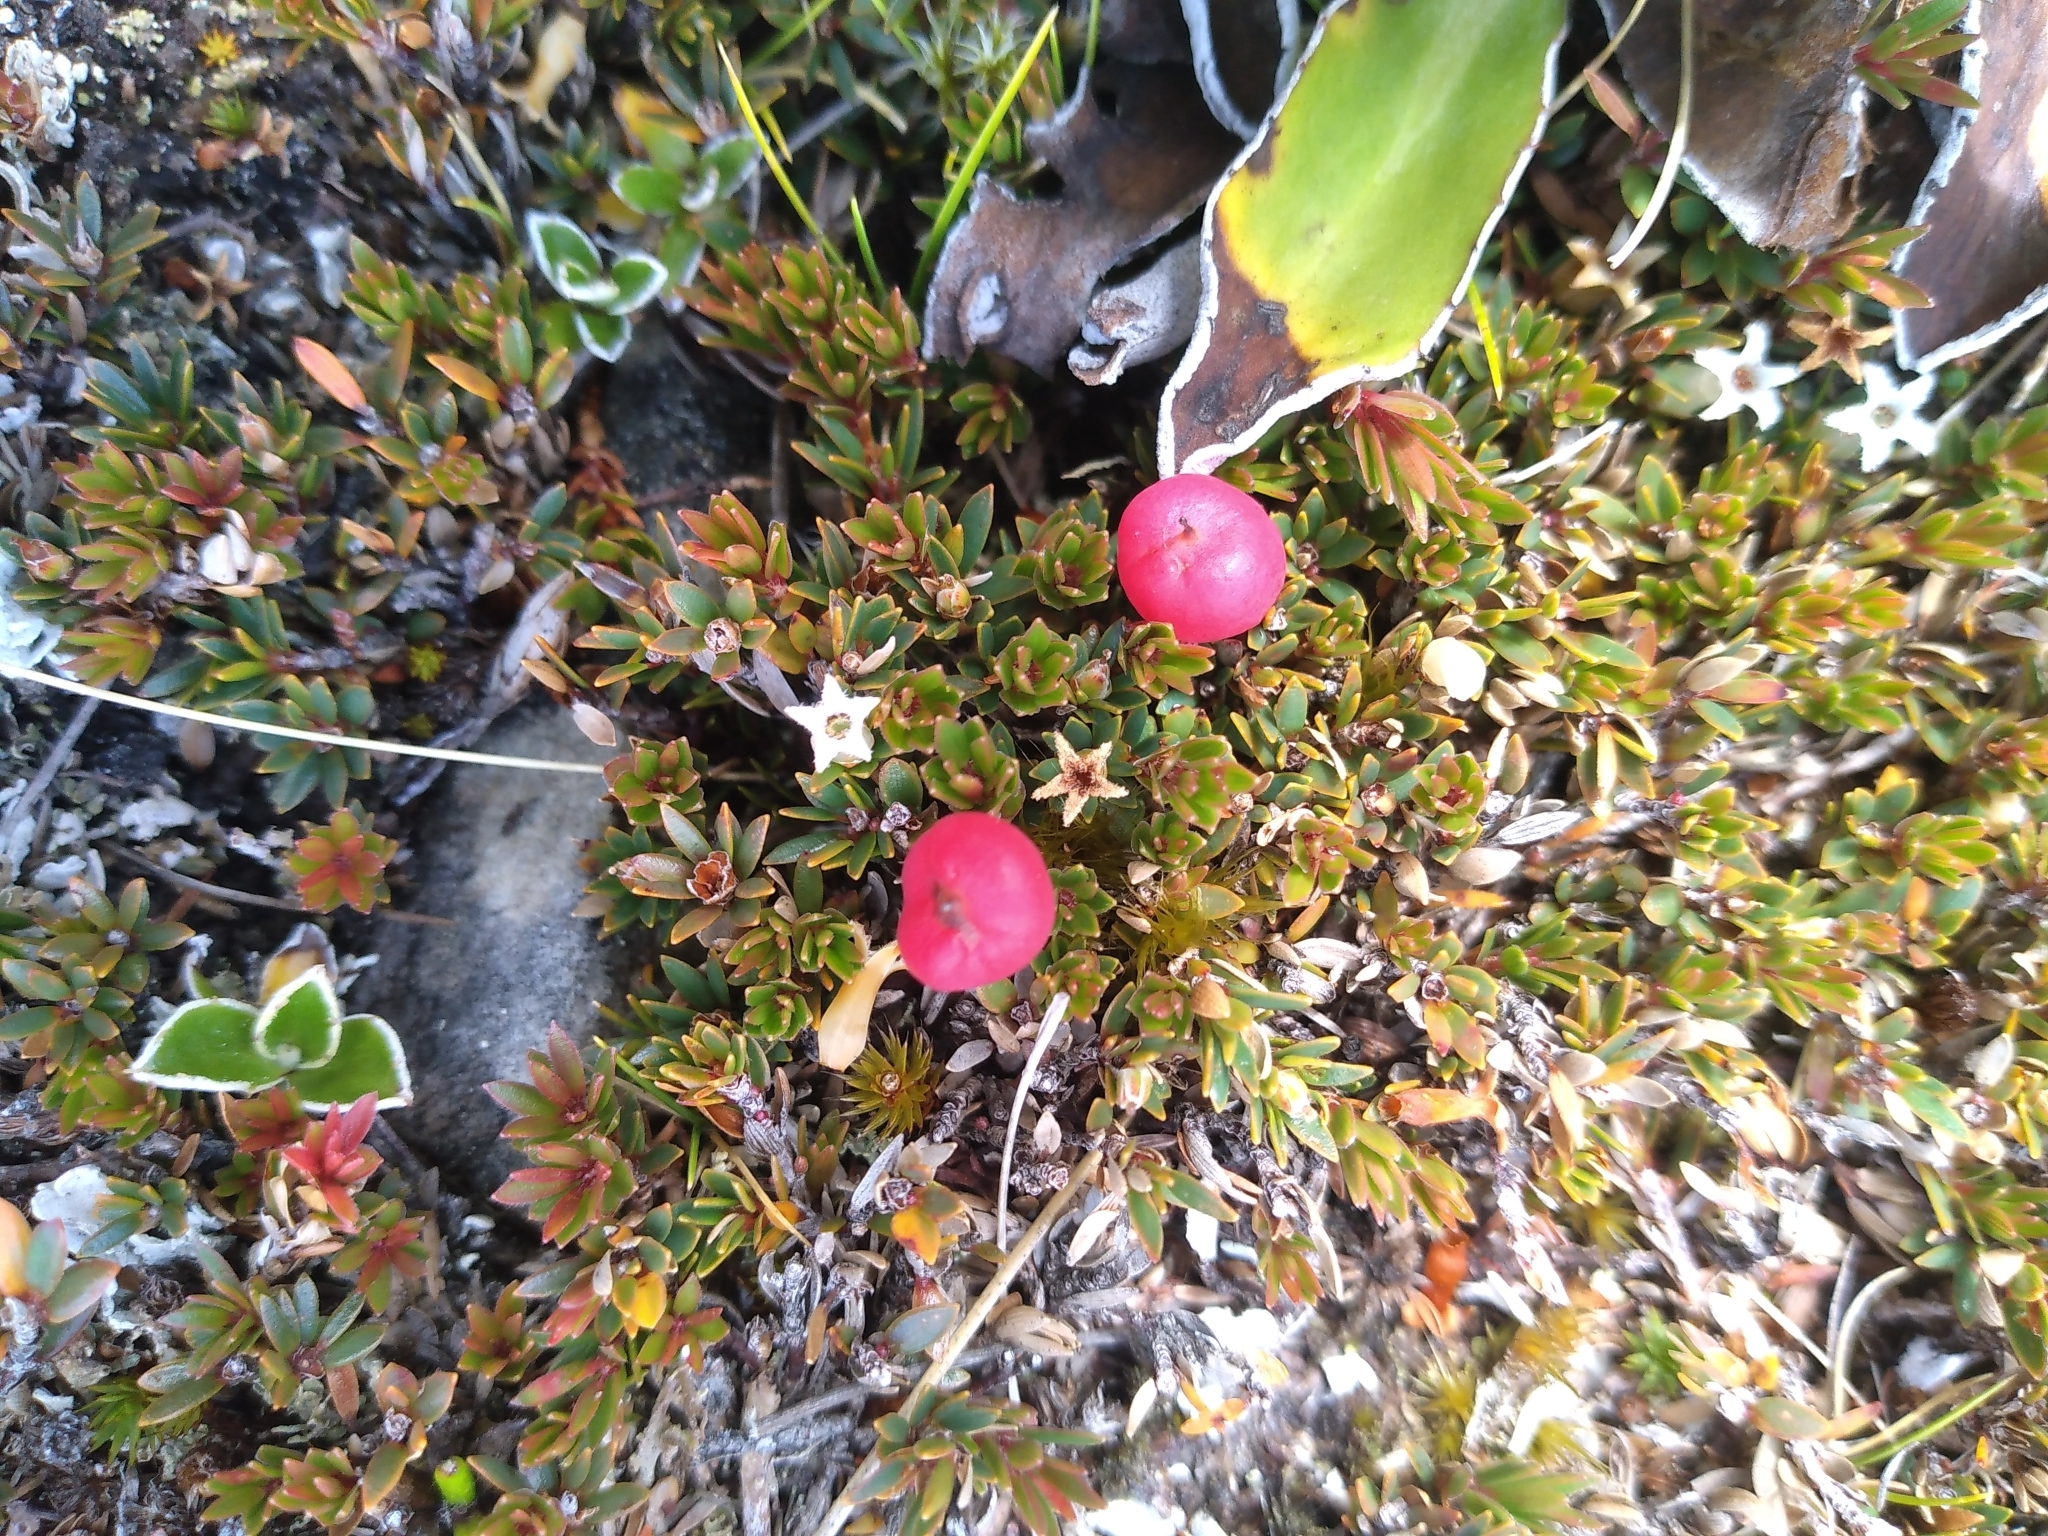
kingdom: Plantae
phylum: Tracheophyta
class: Magnoliopsida
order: Ericales
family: Ericaceae
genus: Pentachondra
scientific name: Pentachondra pumila
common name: Carpet-heath
